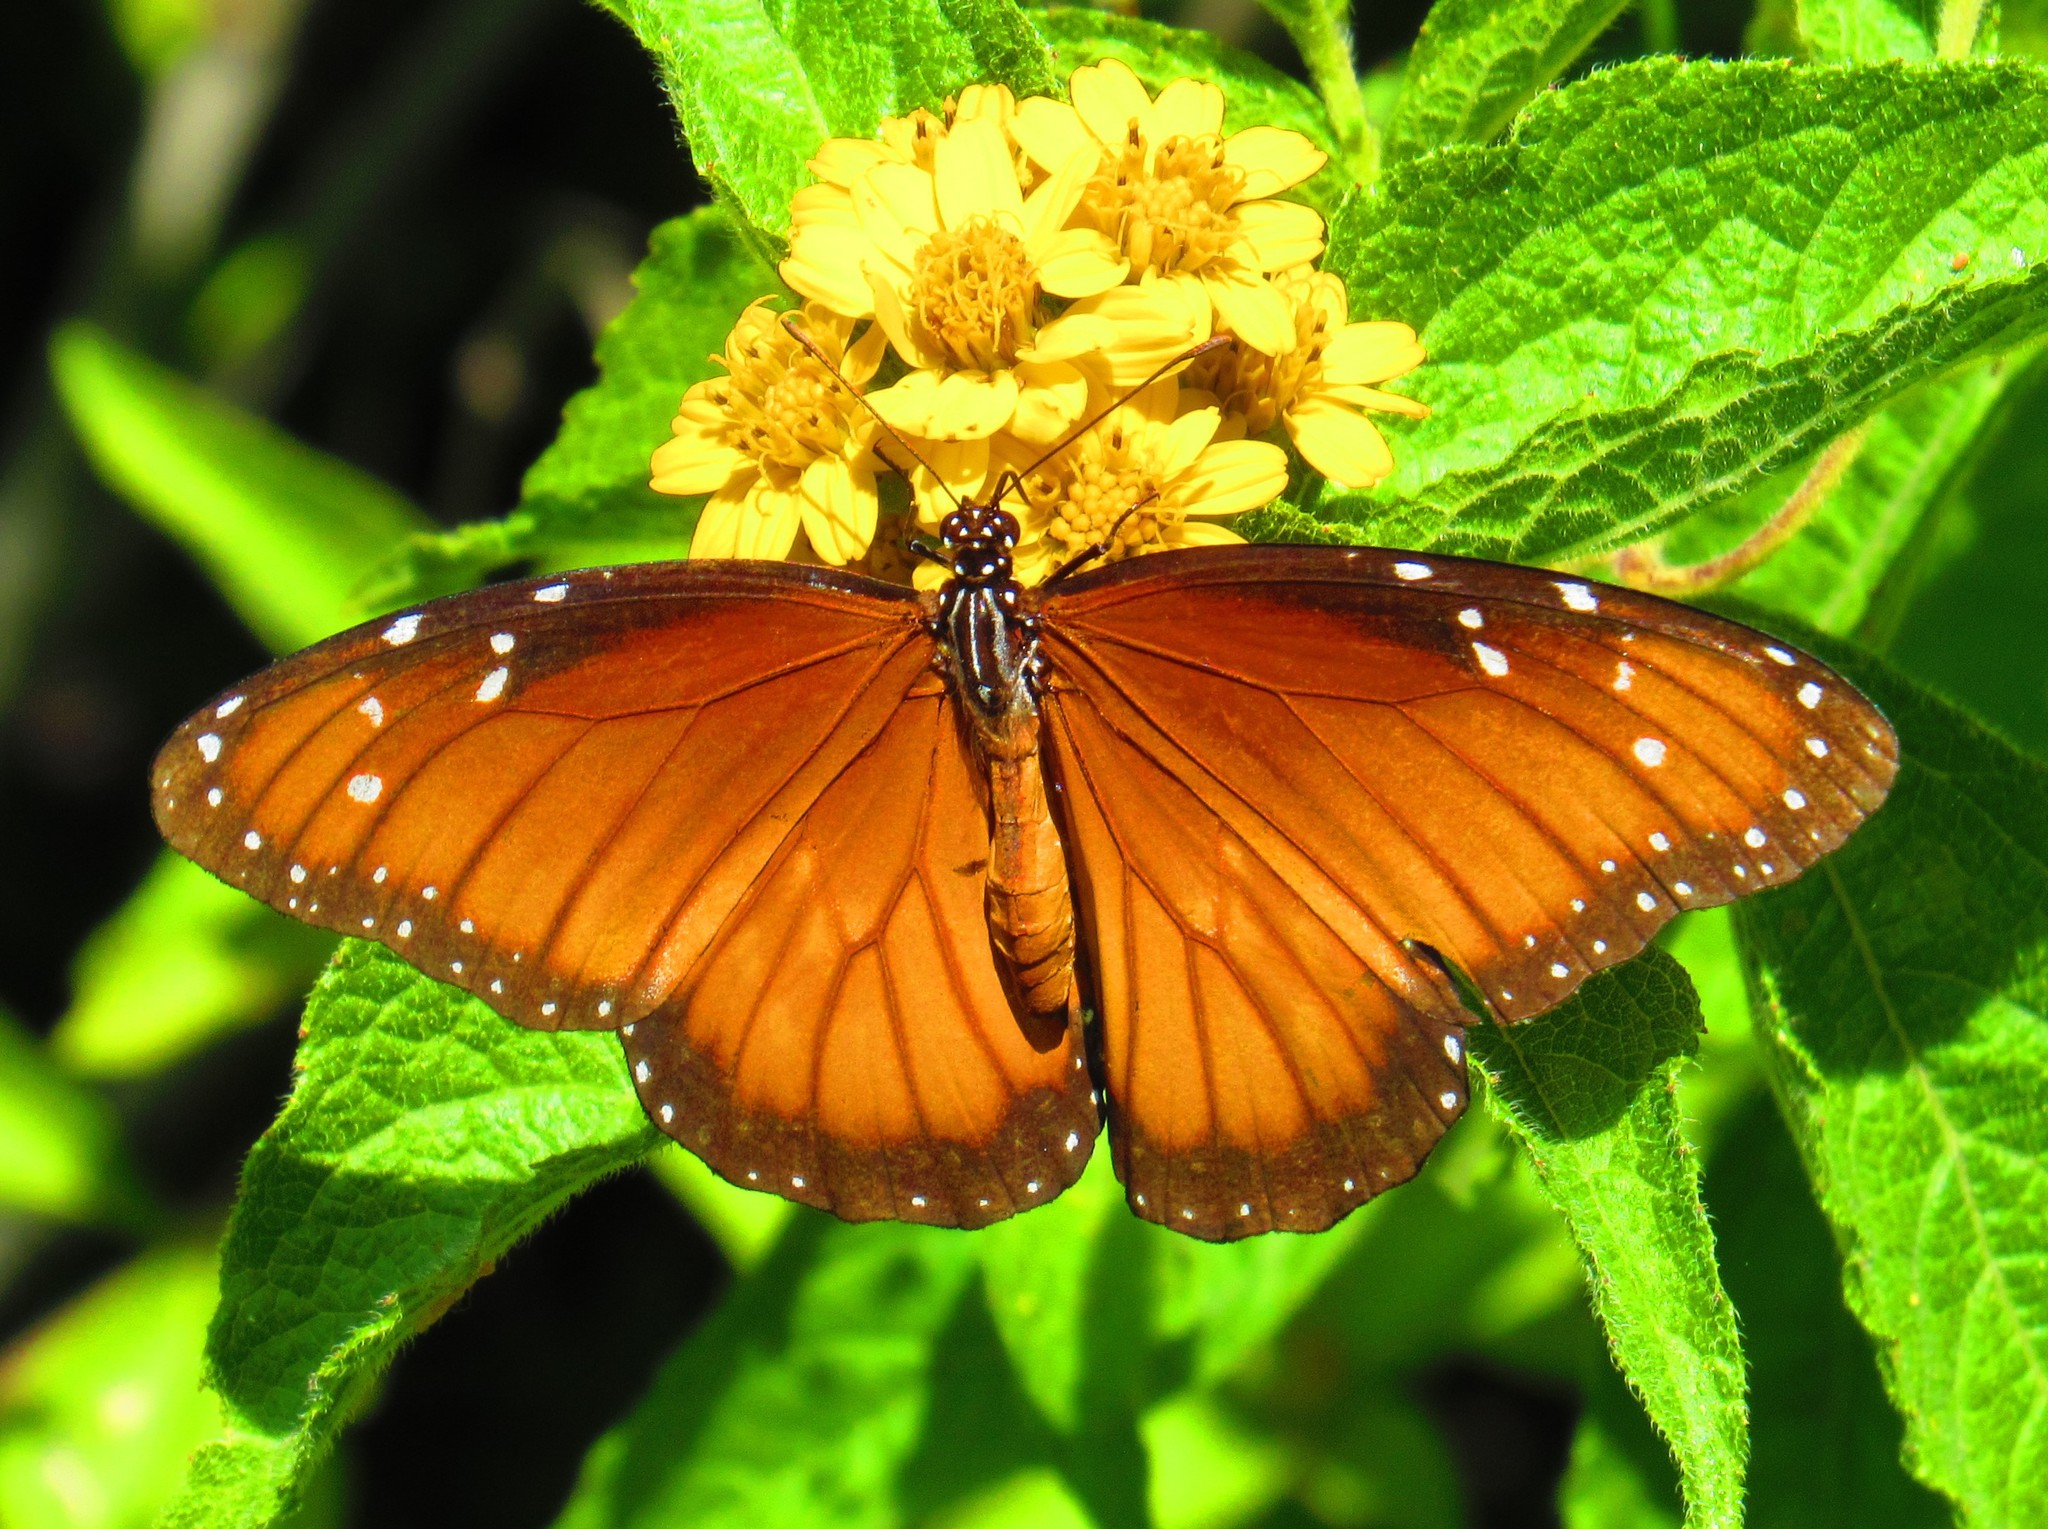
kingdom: Animalia
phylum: Arthropoda
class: Insecta
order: Lepidoptera
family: Nymphalidae
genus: Danaus
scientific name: Danaus eresimus
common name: Soldier
